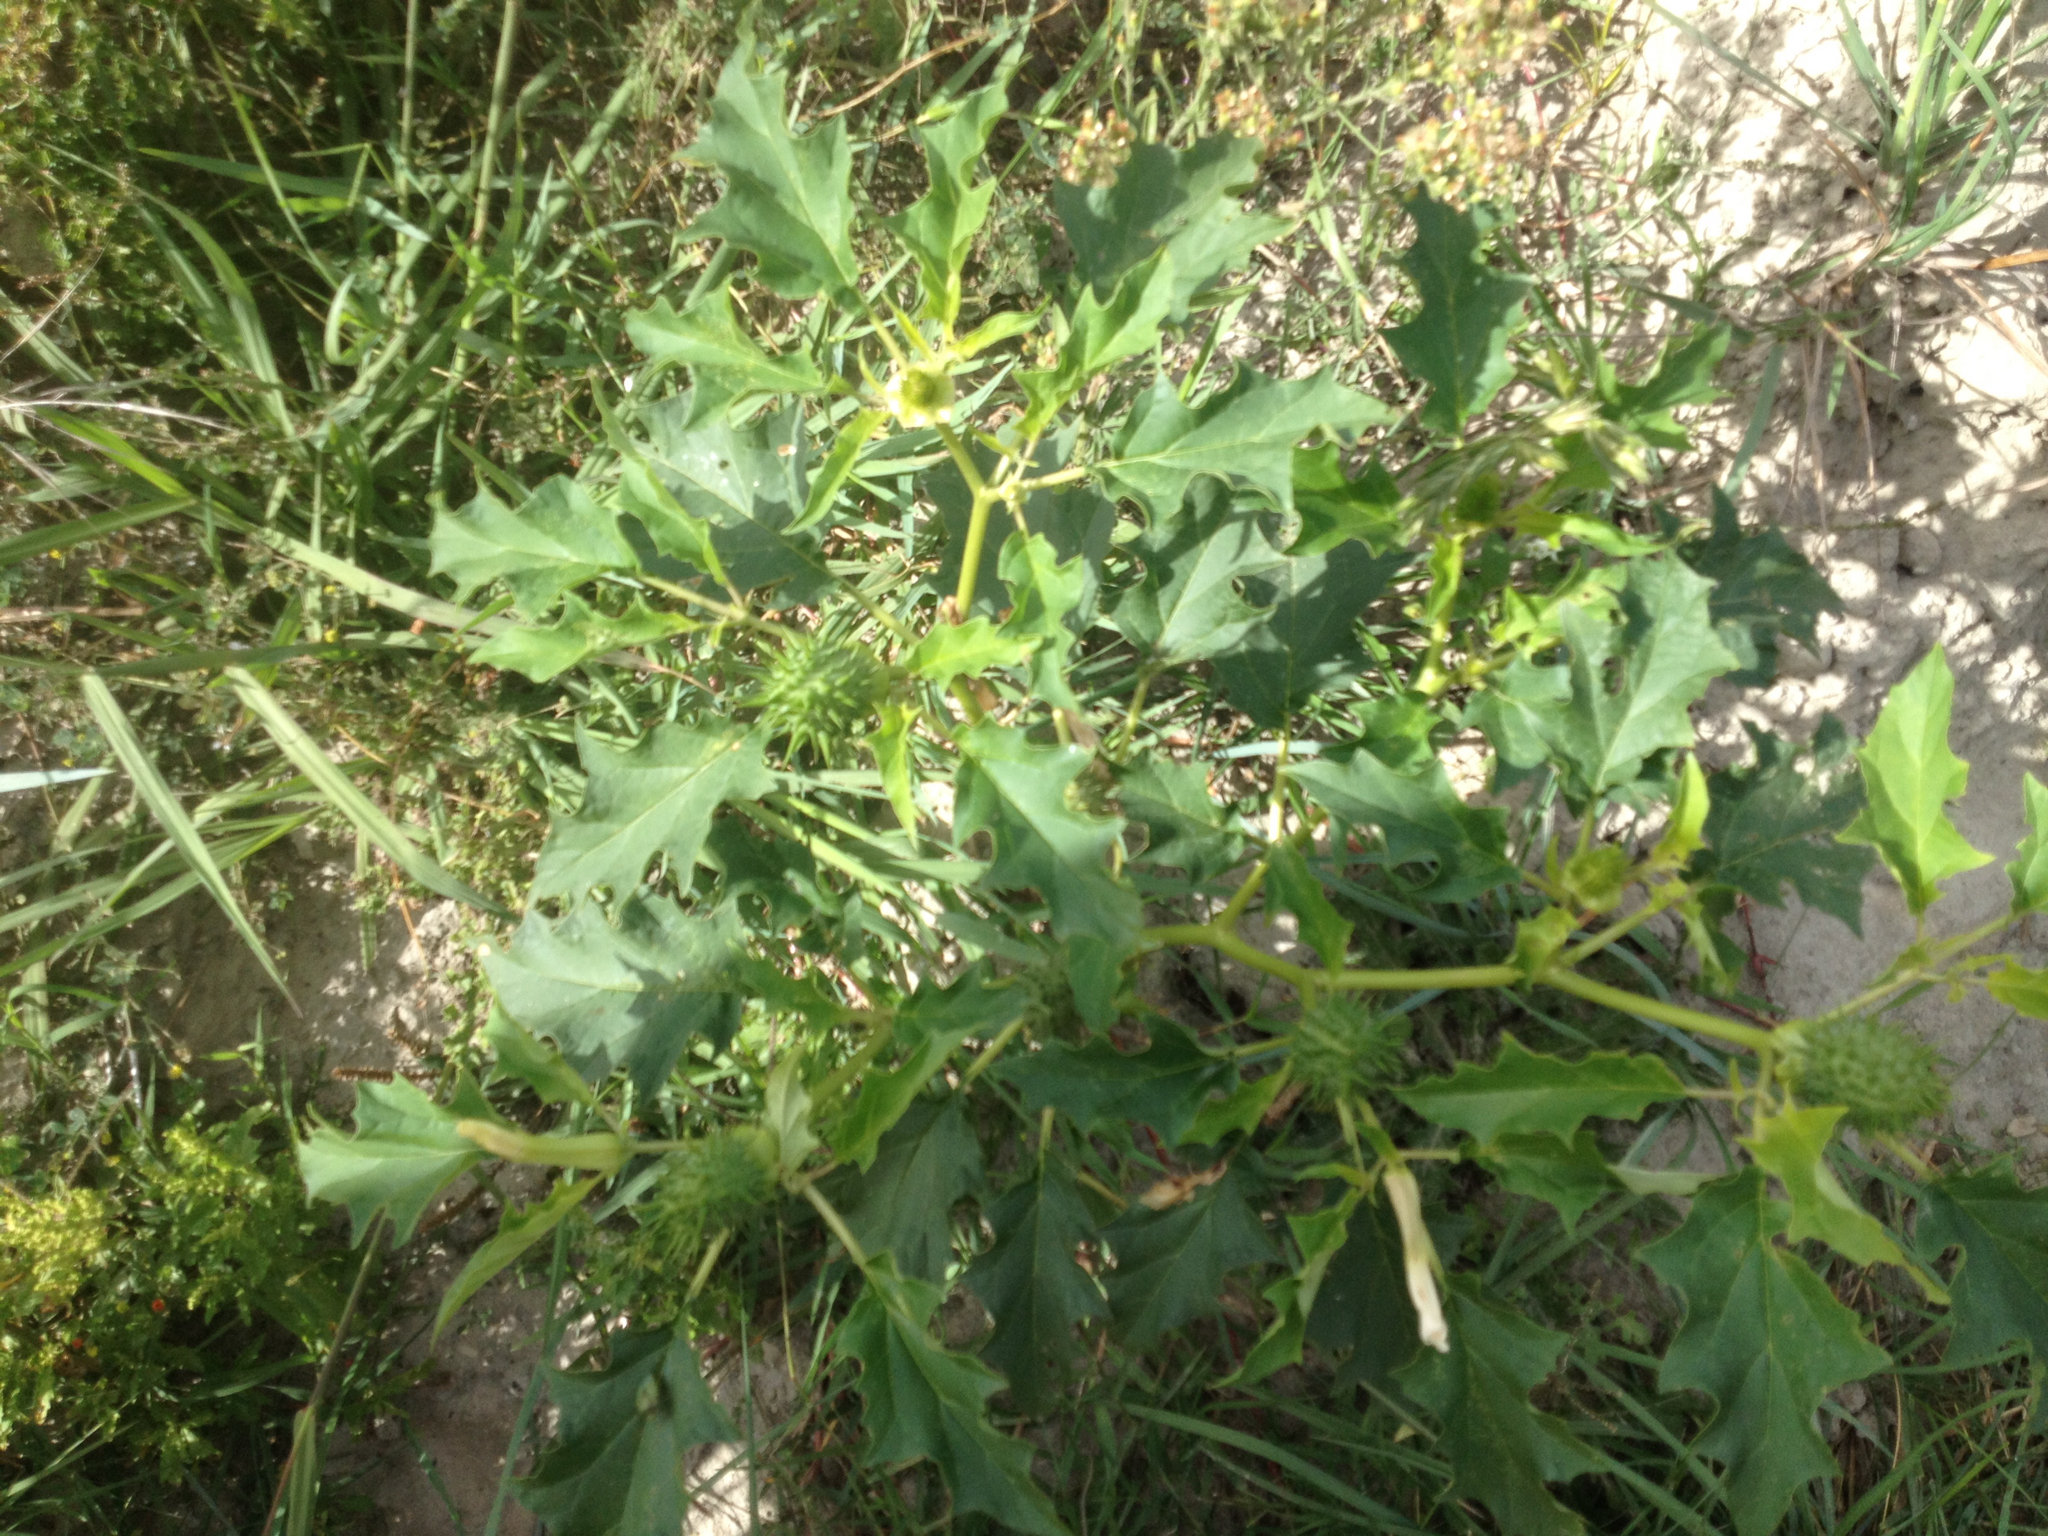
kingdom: Plantae
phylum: Tracheophyta
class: Magnoliopsida
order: Solanales
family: Solanaceae
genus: Datura
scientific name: Datura stramonium
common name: Thorn-apple
